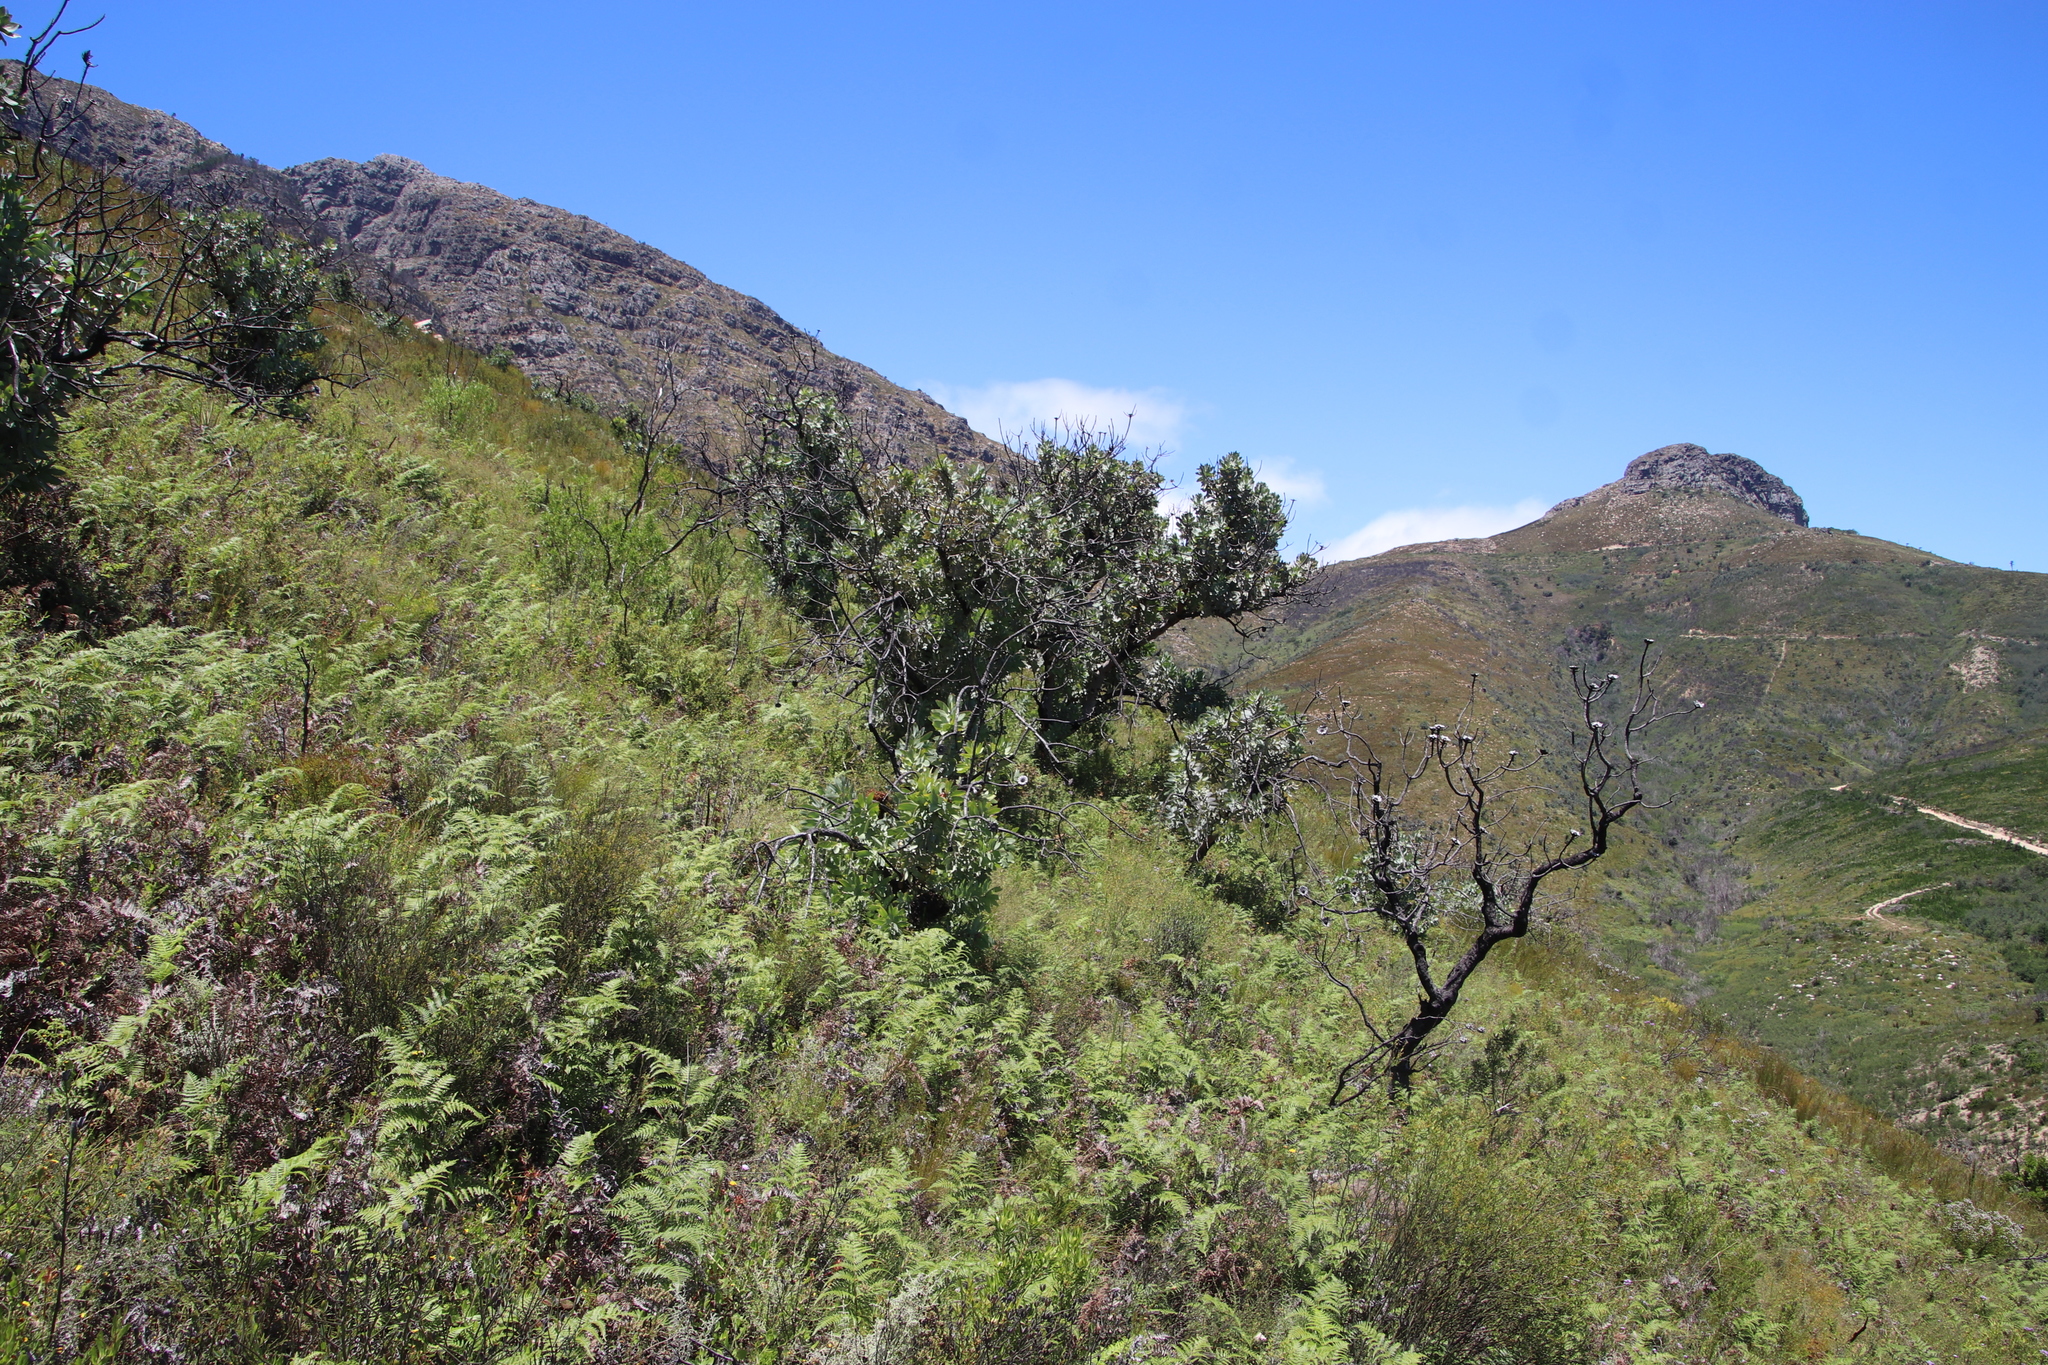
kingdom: Plantae
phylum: Tracheophyta
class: Magnoliopsida
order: Proteales
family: Proteaceae
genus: Protea
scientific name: Protea nitida
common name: Tree protea
